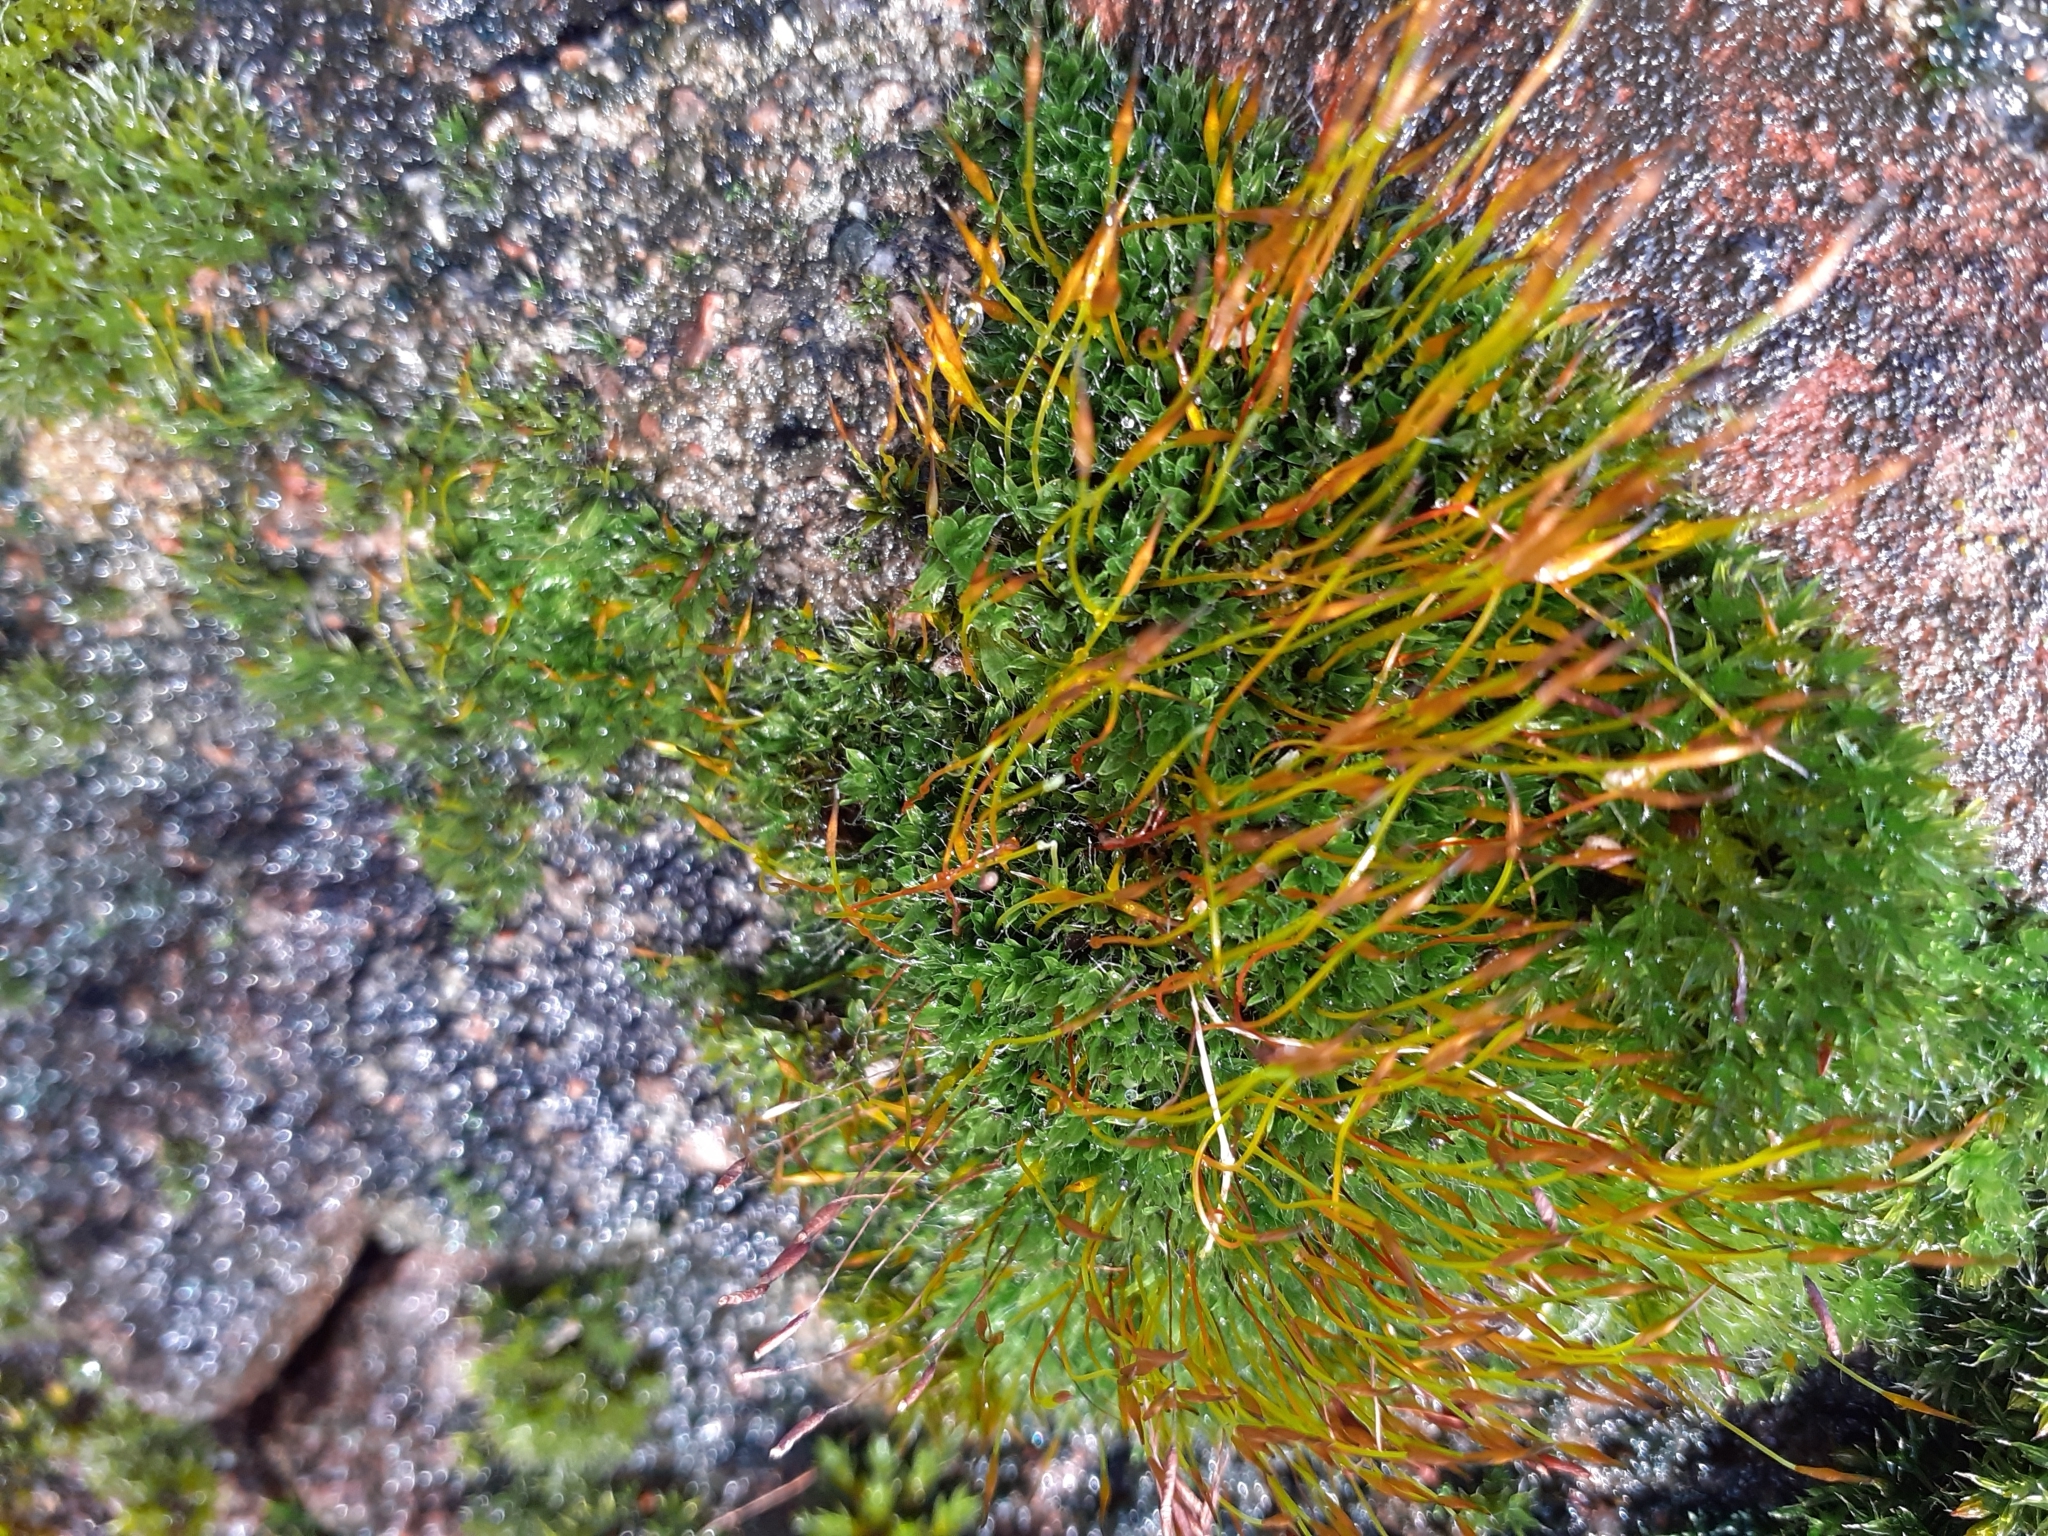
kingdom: Plantae
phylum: Bryophyta
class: Bryopsida
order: Pottiales
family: Pottiaceae
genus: Tortula
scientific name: Tortula muralis
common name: Wall screw-moss
